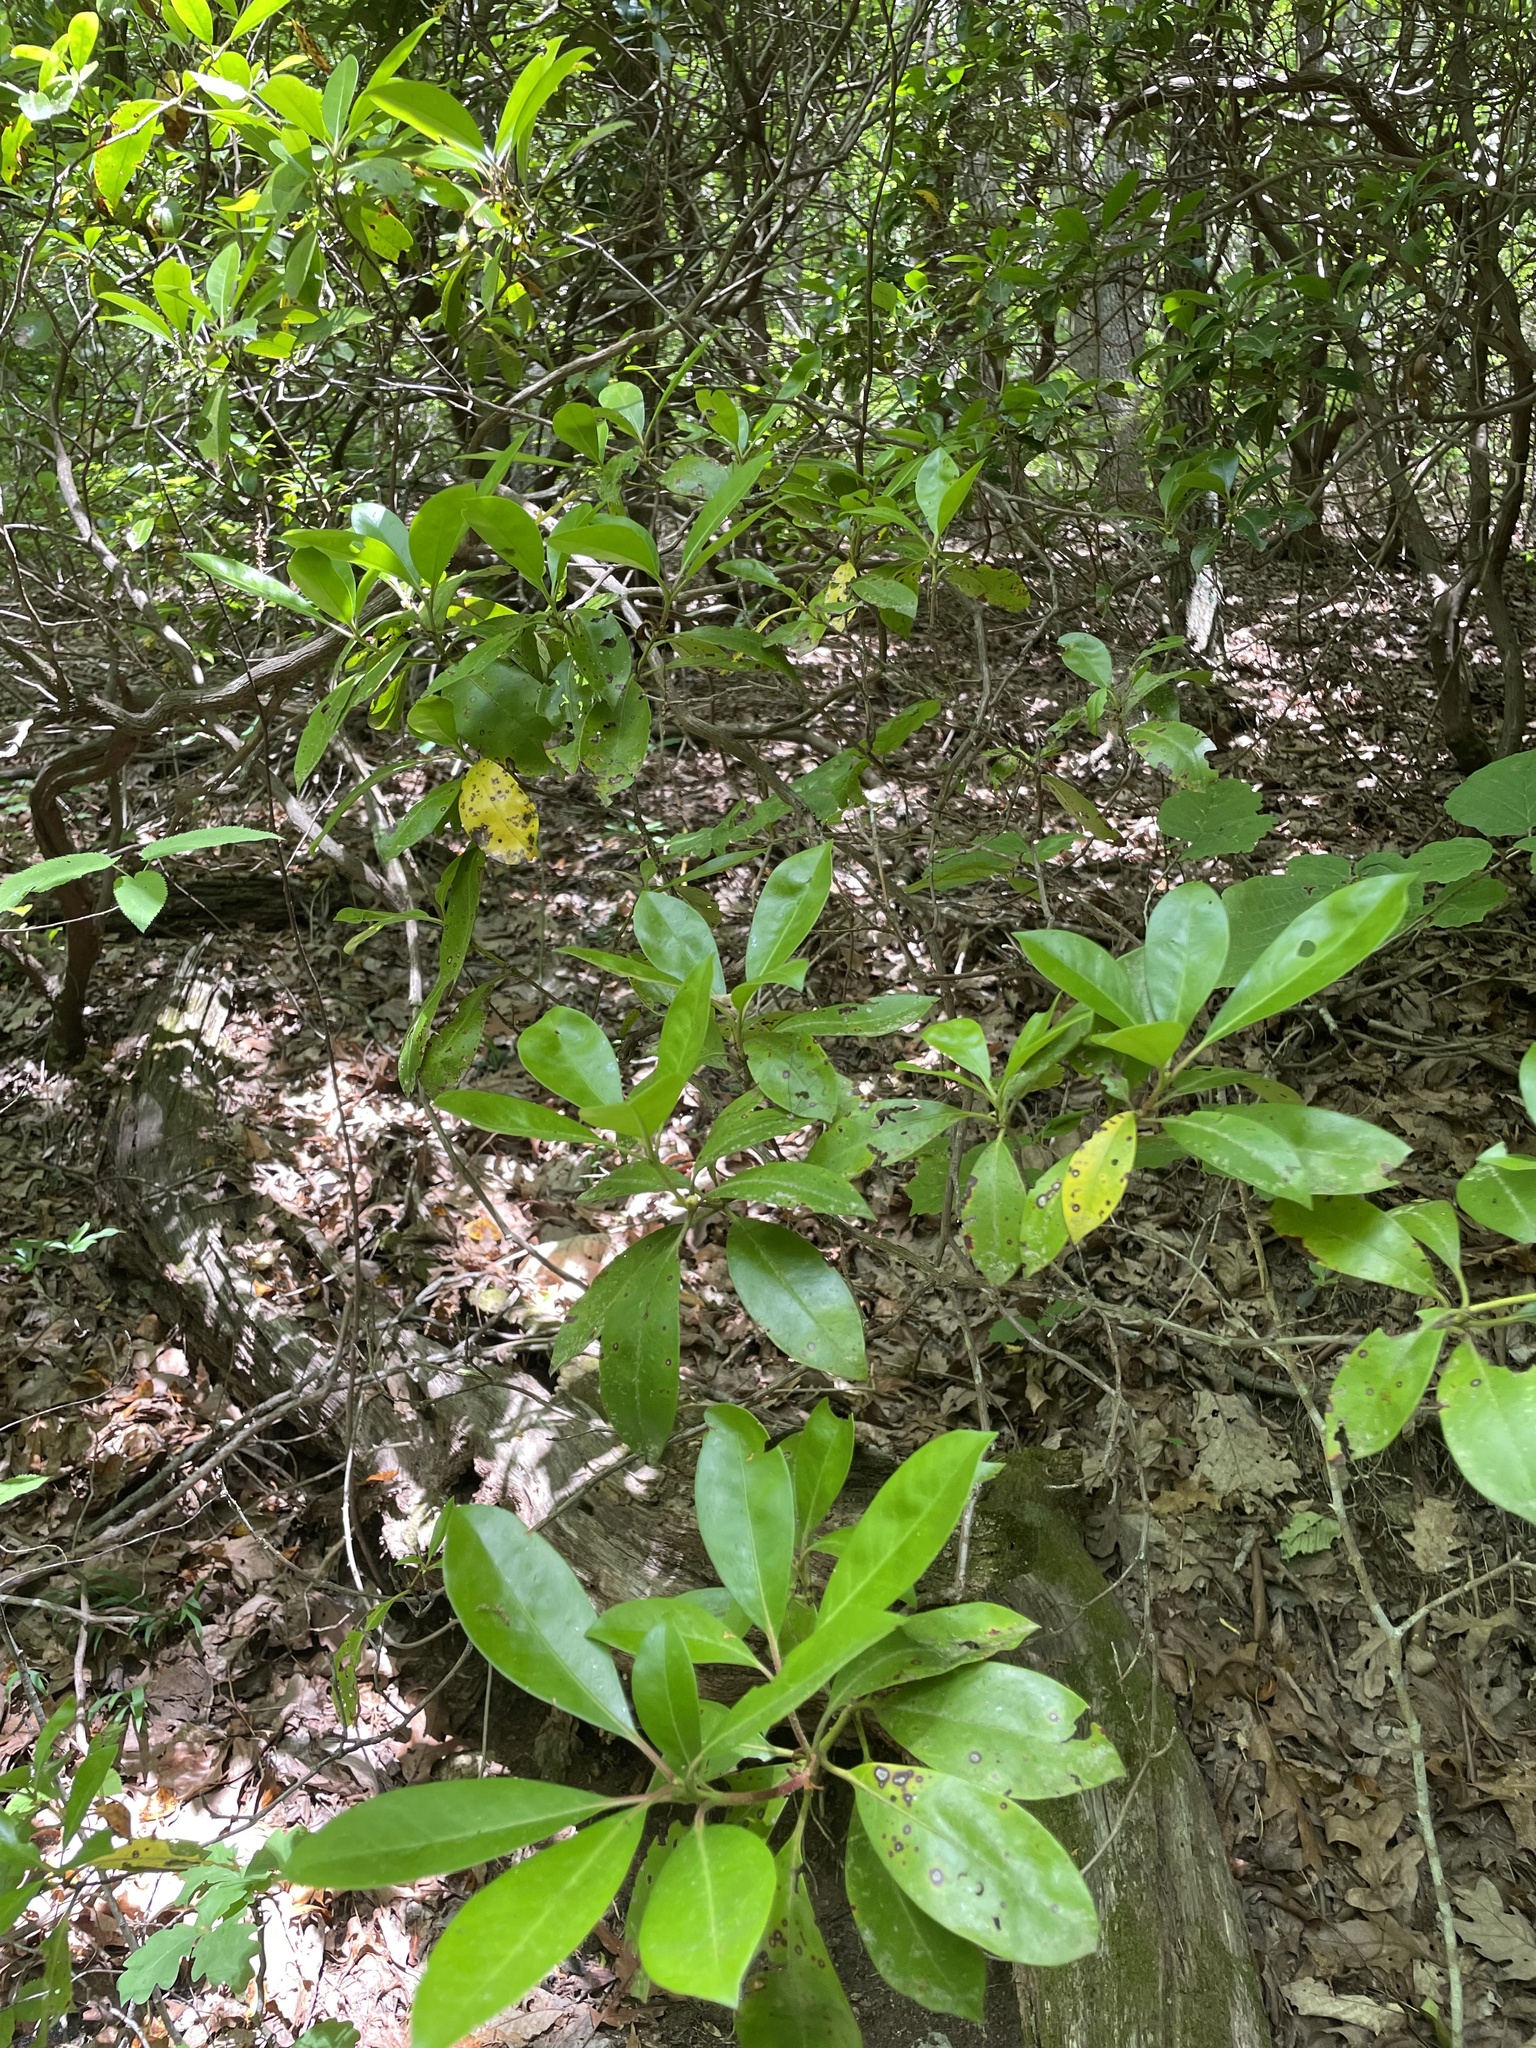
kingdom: Plantae
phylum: Tracheophyta
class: Magnoliopsida
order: Ericales
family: Ericaceae
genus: Kalmia
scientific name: Kalmia latifolia
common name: Mountain-laurel
